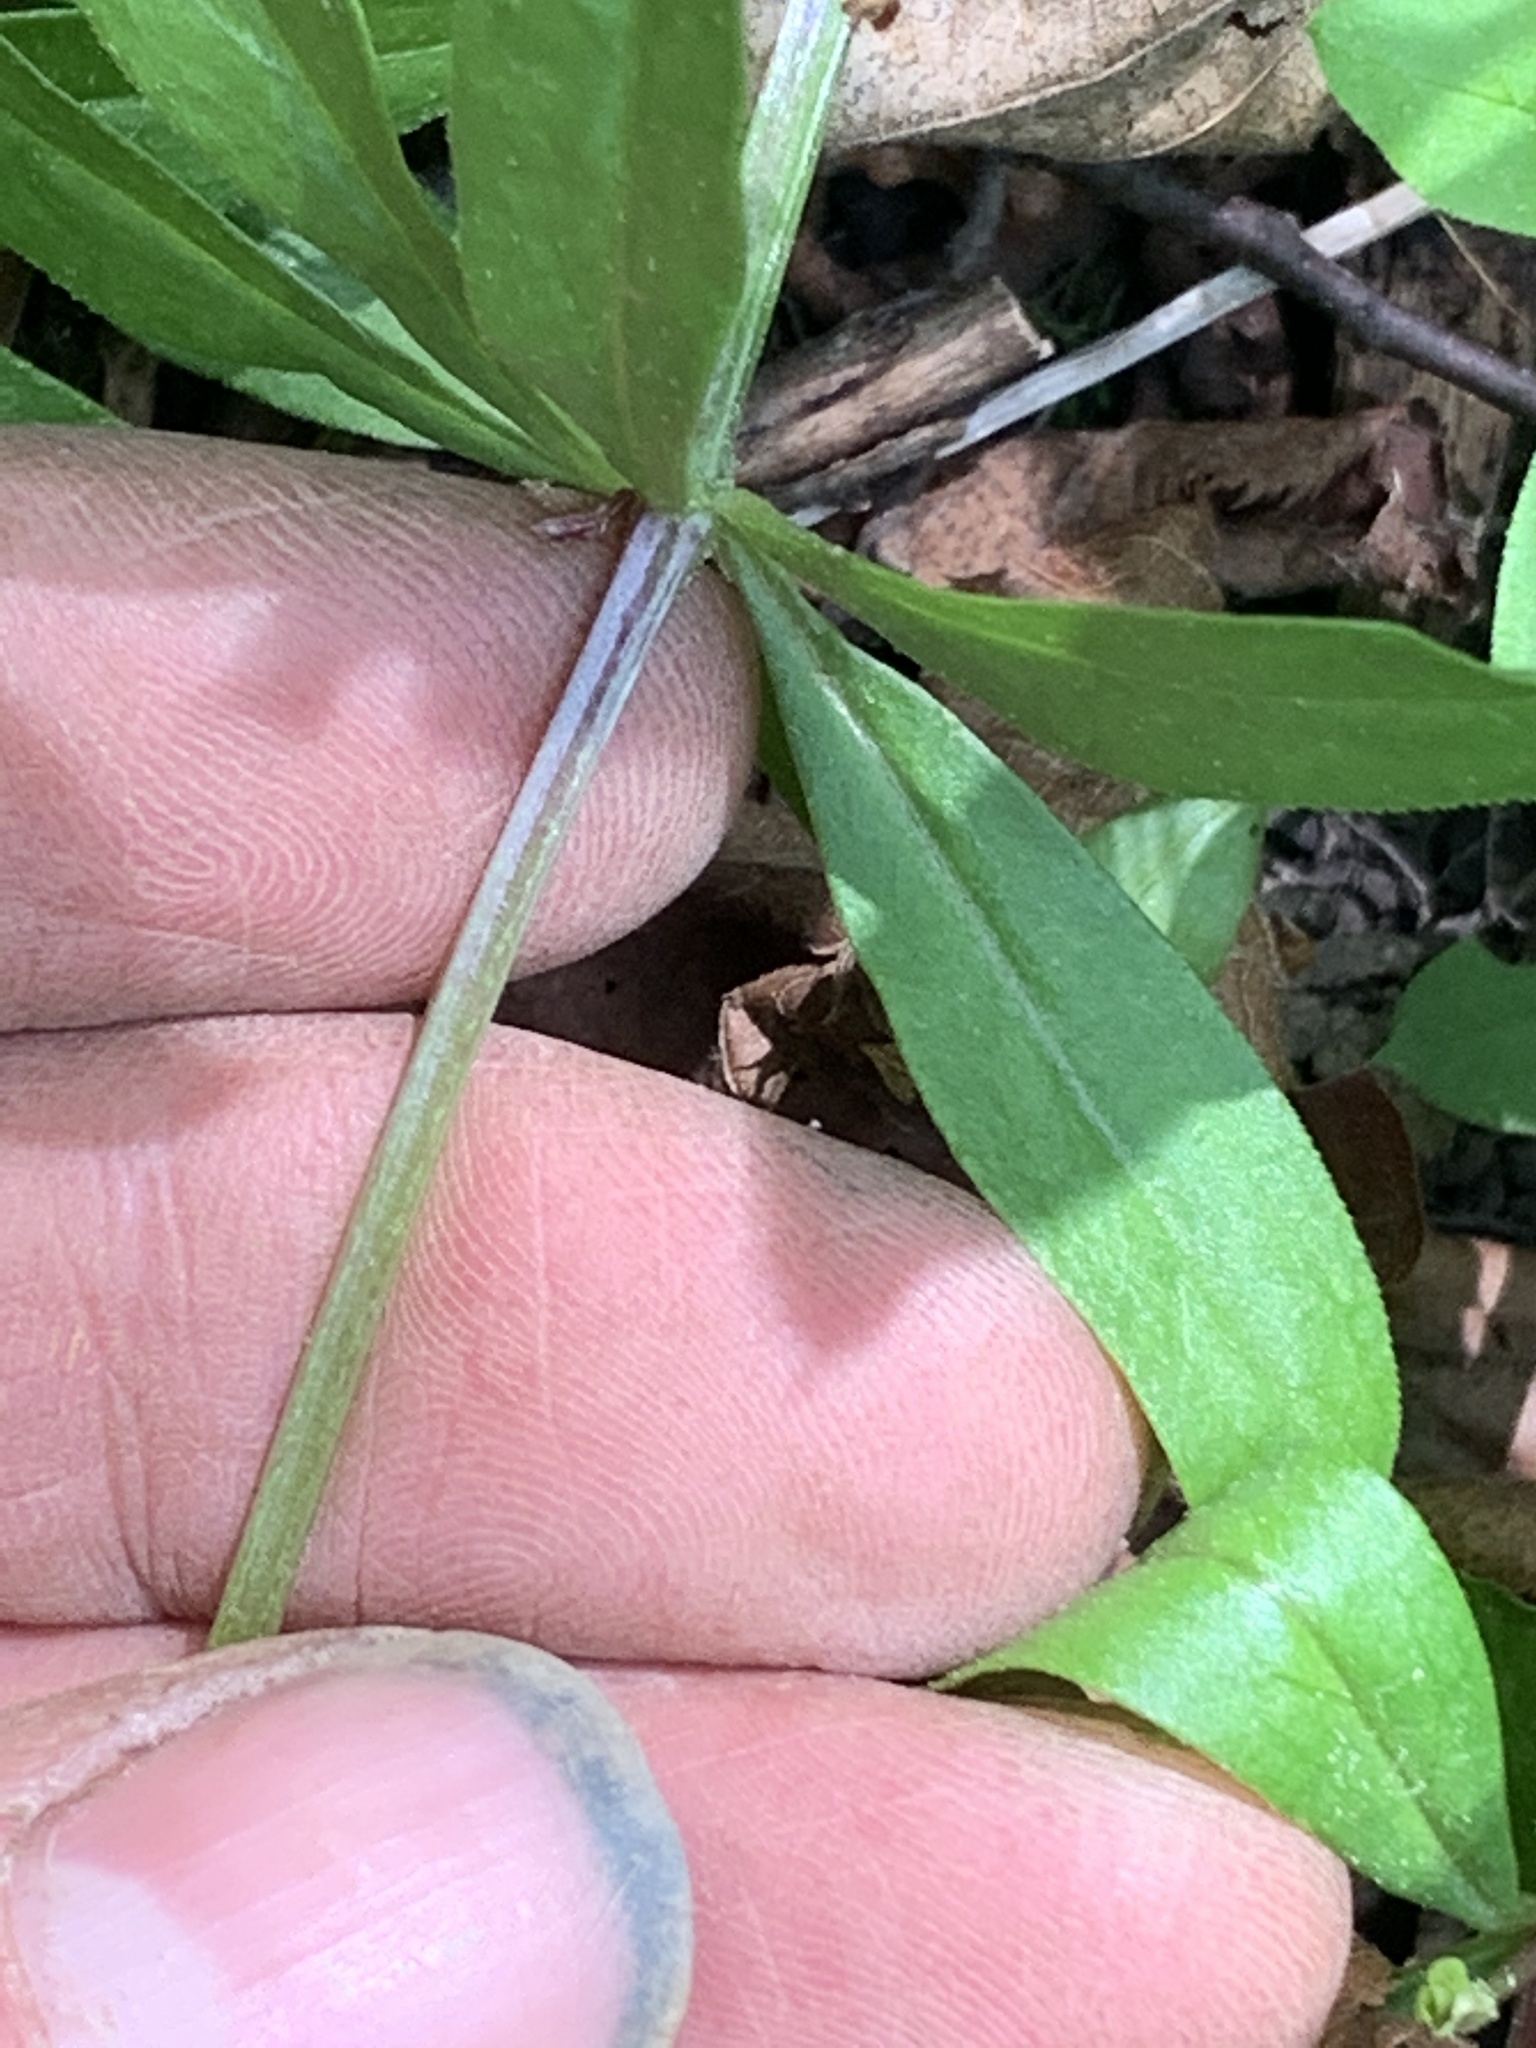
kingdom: Plantae
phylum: Tracheophyta
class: Magnoliopsida
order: Gentianales
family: Rubiaceae
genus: Galium
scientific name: Galium triflorum
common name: Fragrant bedstraw
